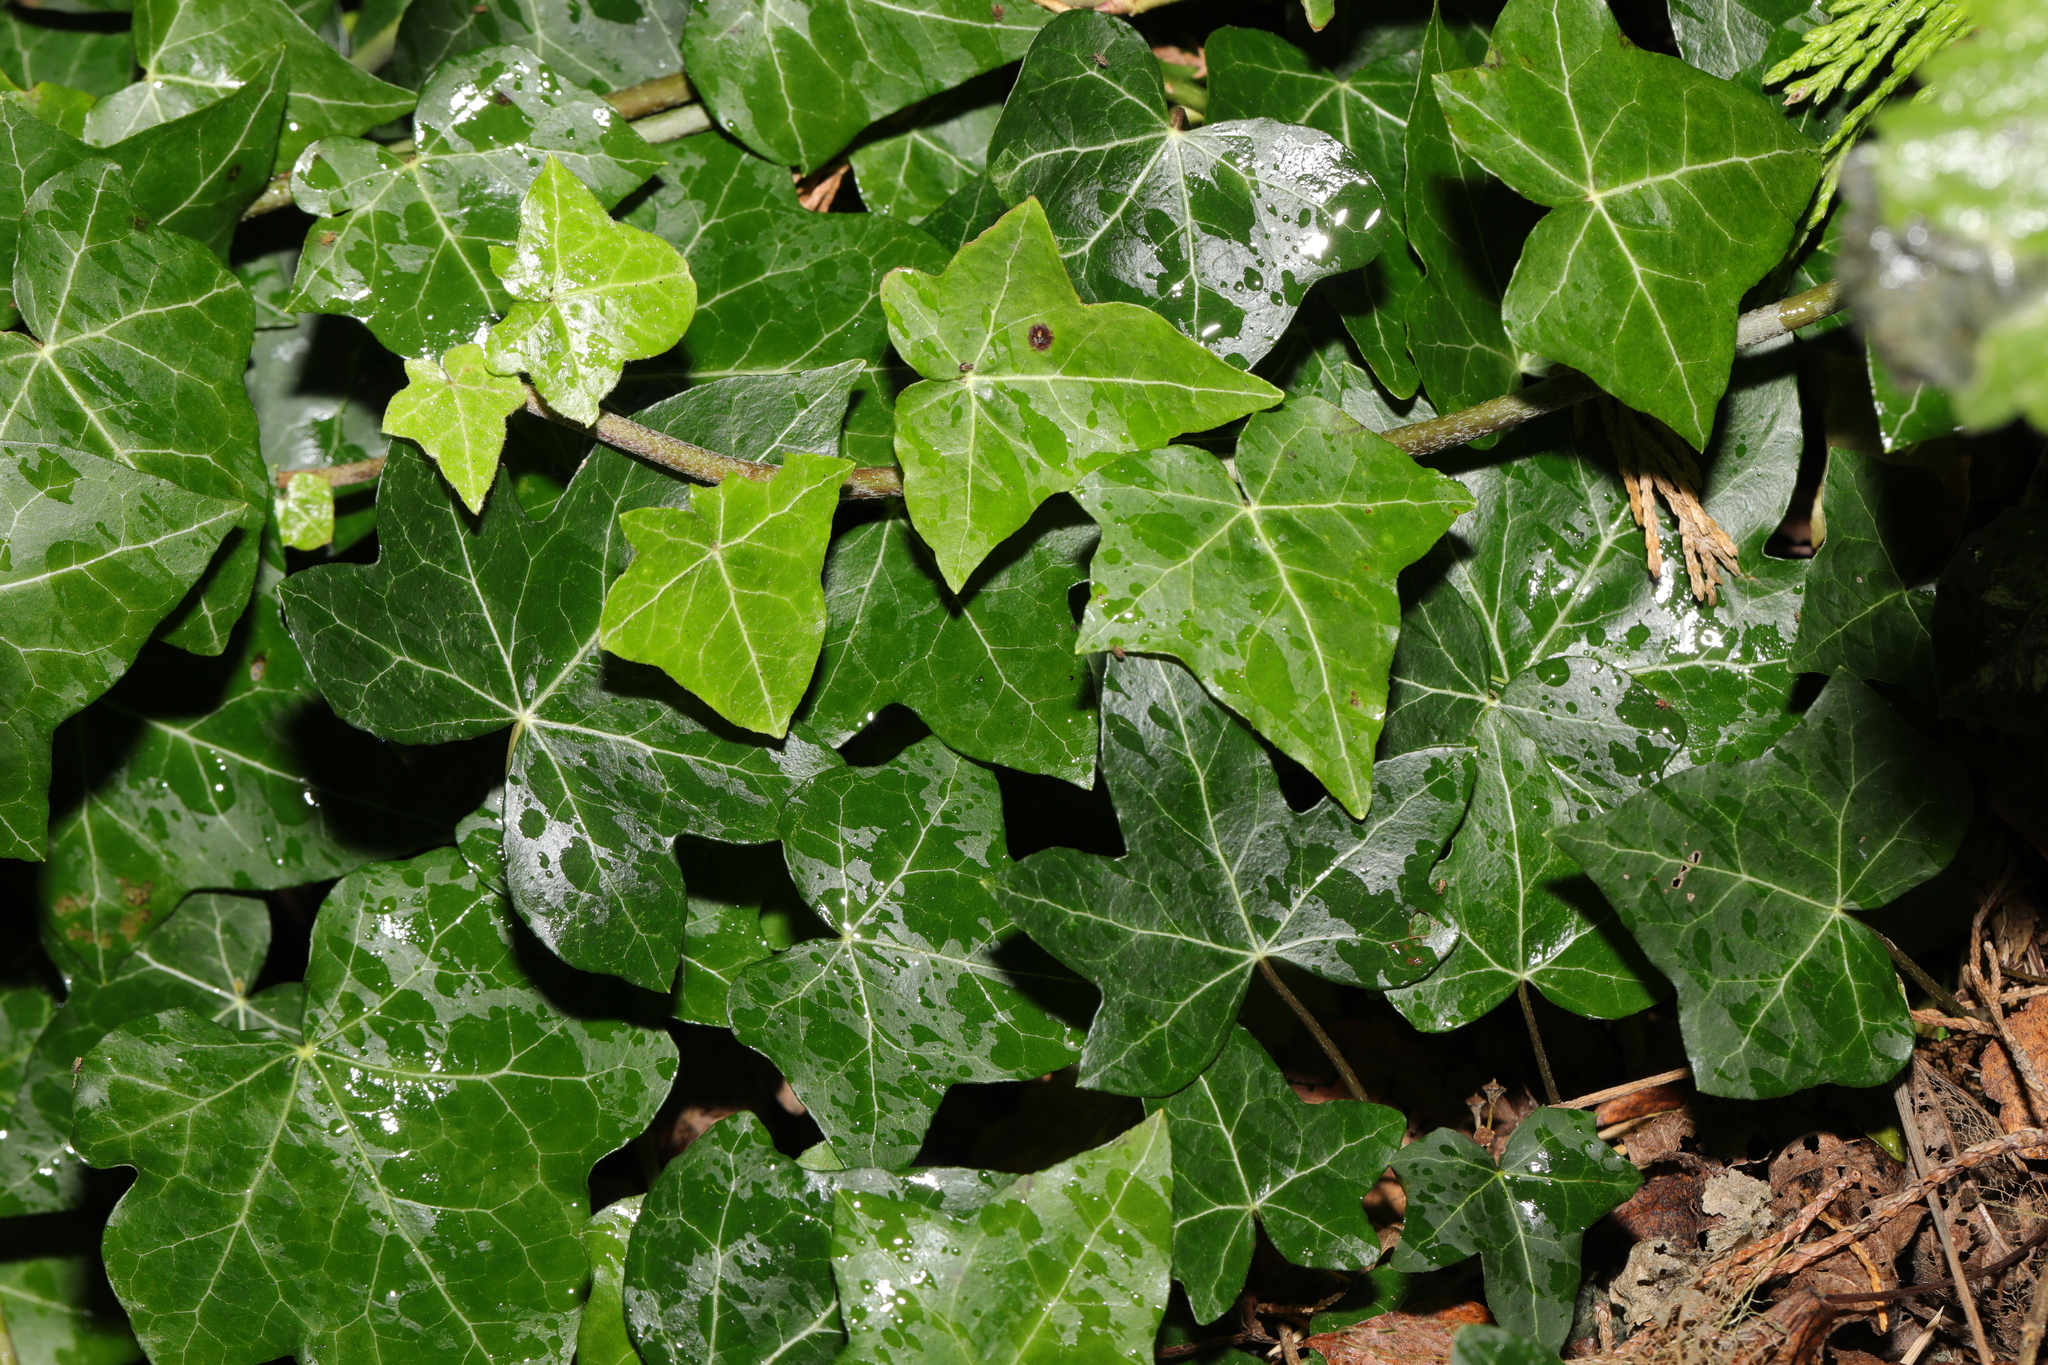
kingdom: Plantae
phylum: Tracheophyta
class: Magnoliopsida
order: Apiales
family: Araliaceae
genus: Hedera
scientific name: Hedera helix
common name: Ivy
